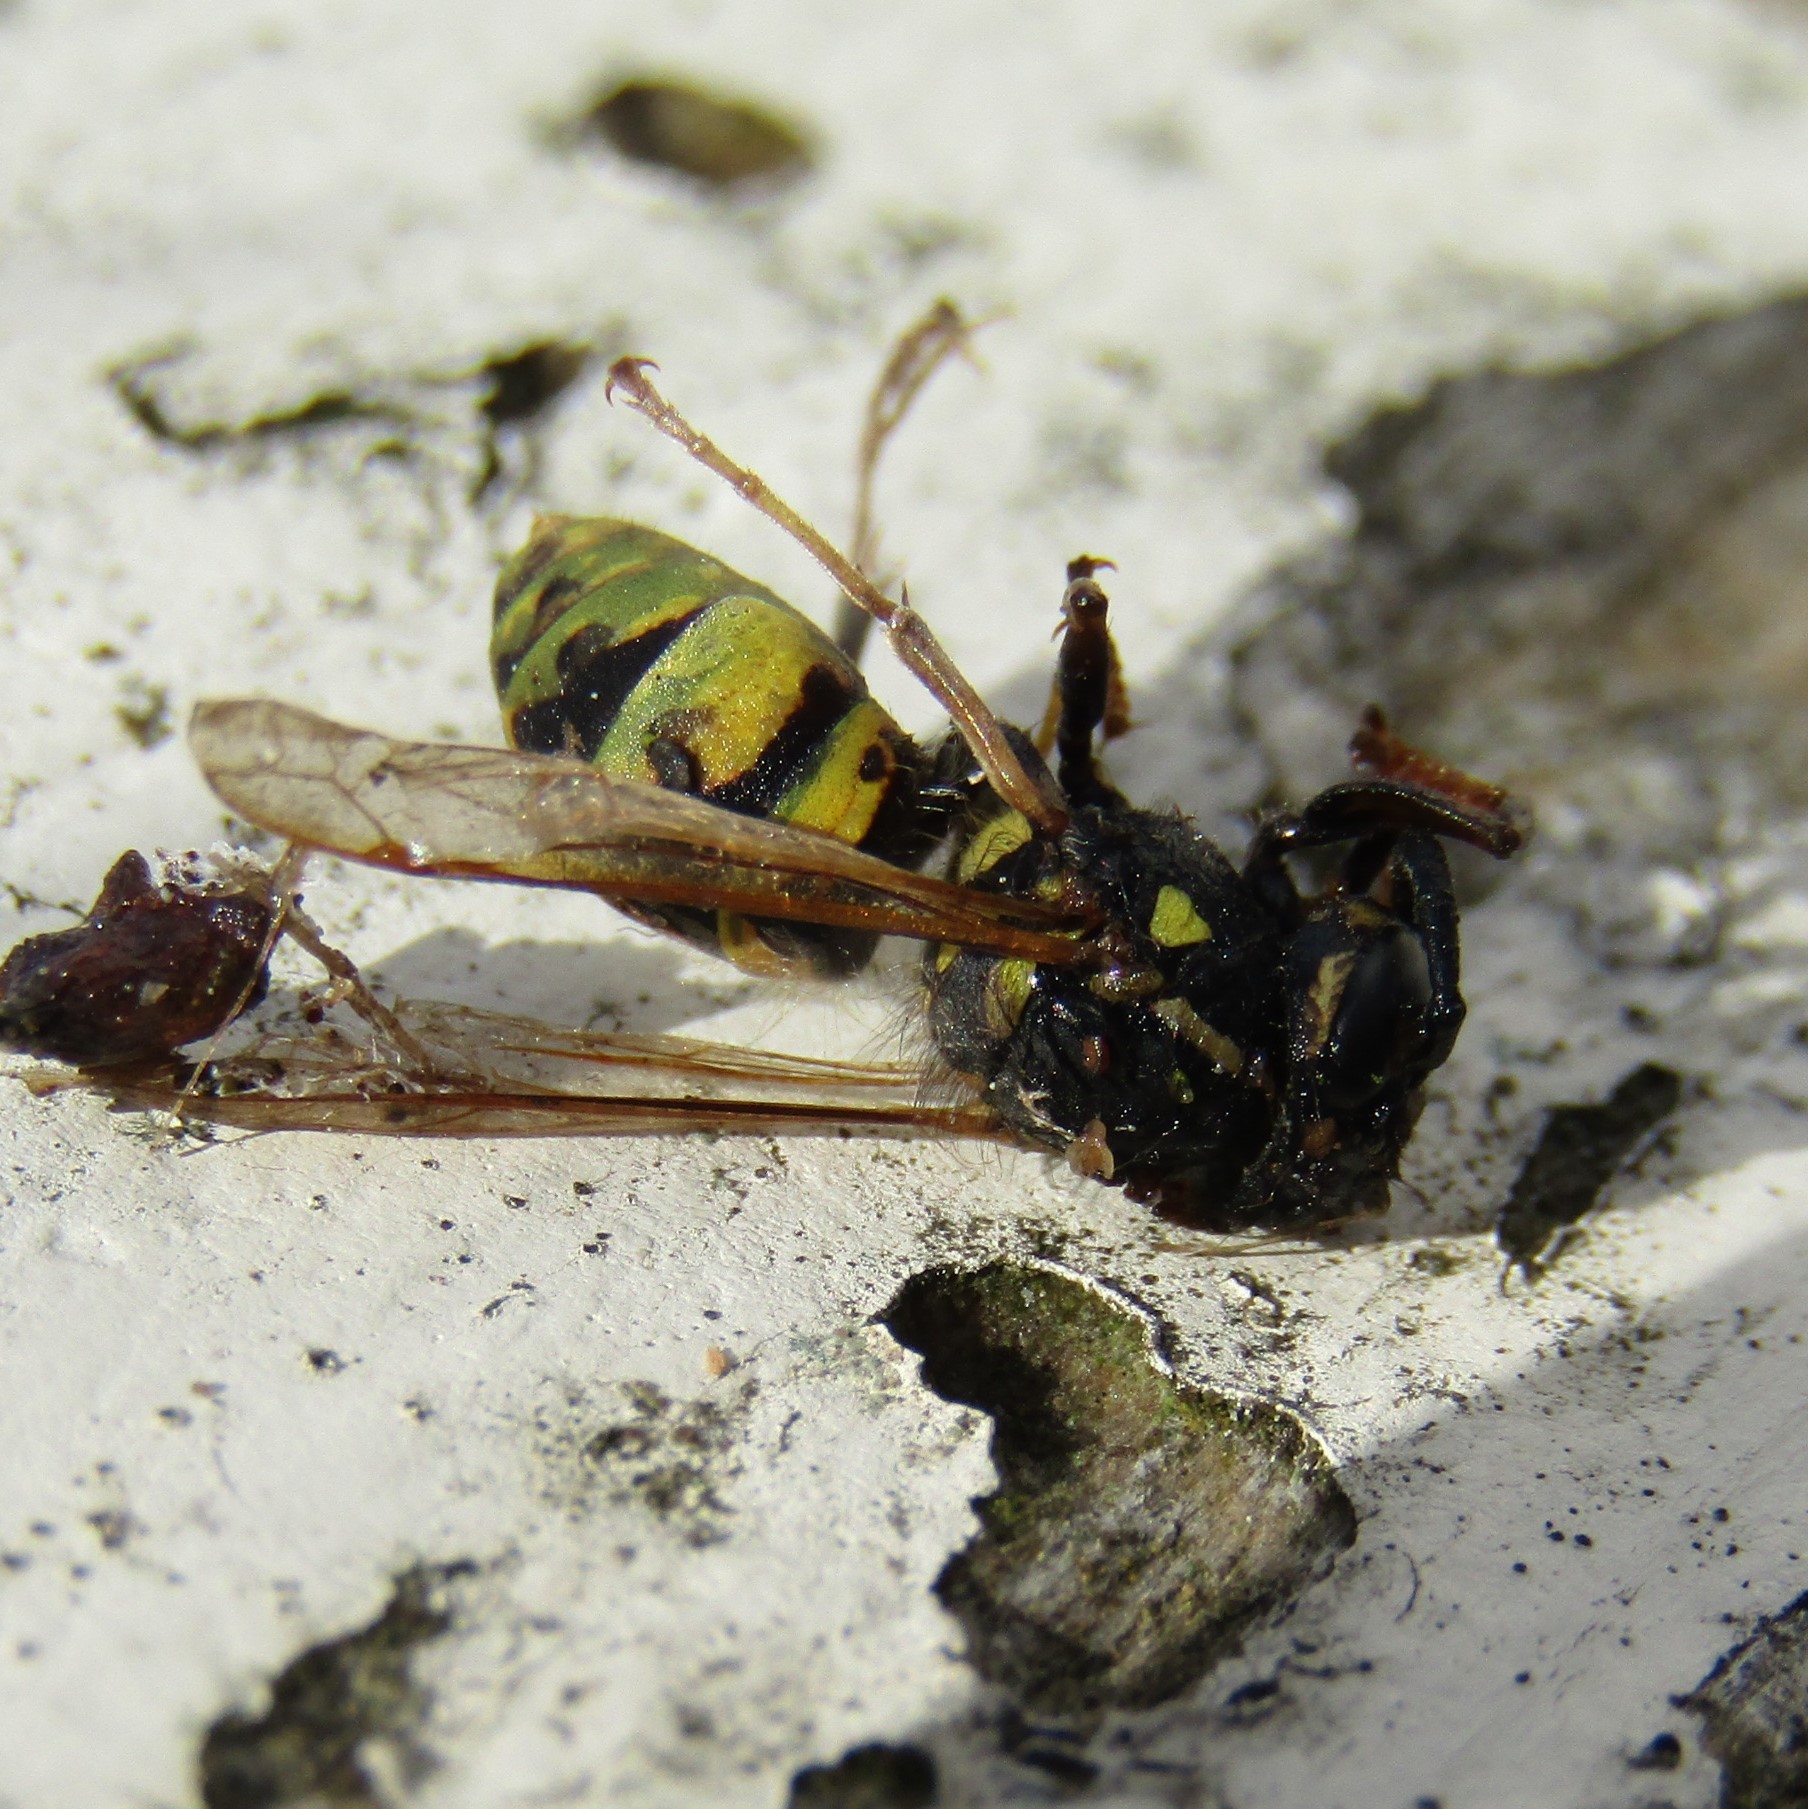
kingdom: Animalia
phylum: Arthropoda
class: Insecta
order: Hymenoptera
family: Vespidae
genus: Vespula
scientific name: Vespula vulgaris
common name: Common wasp
